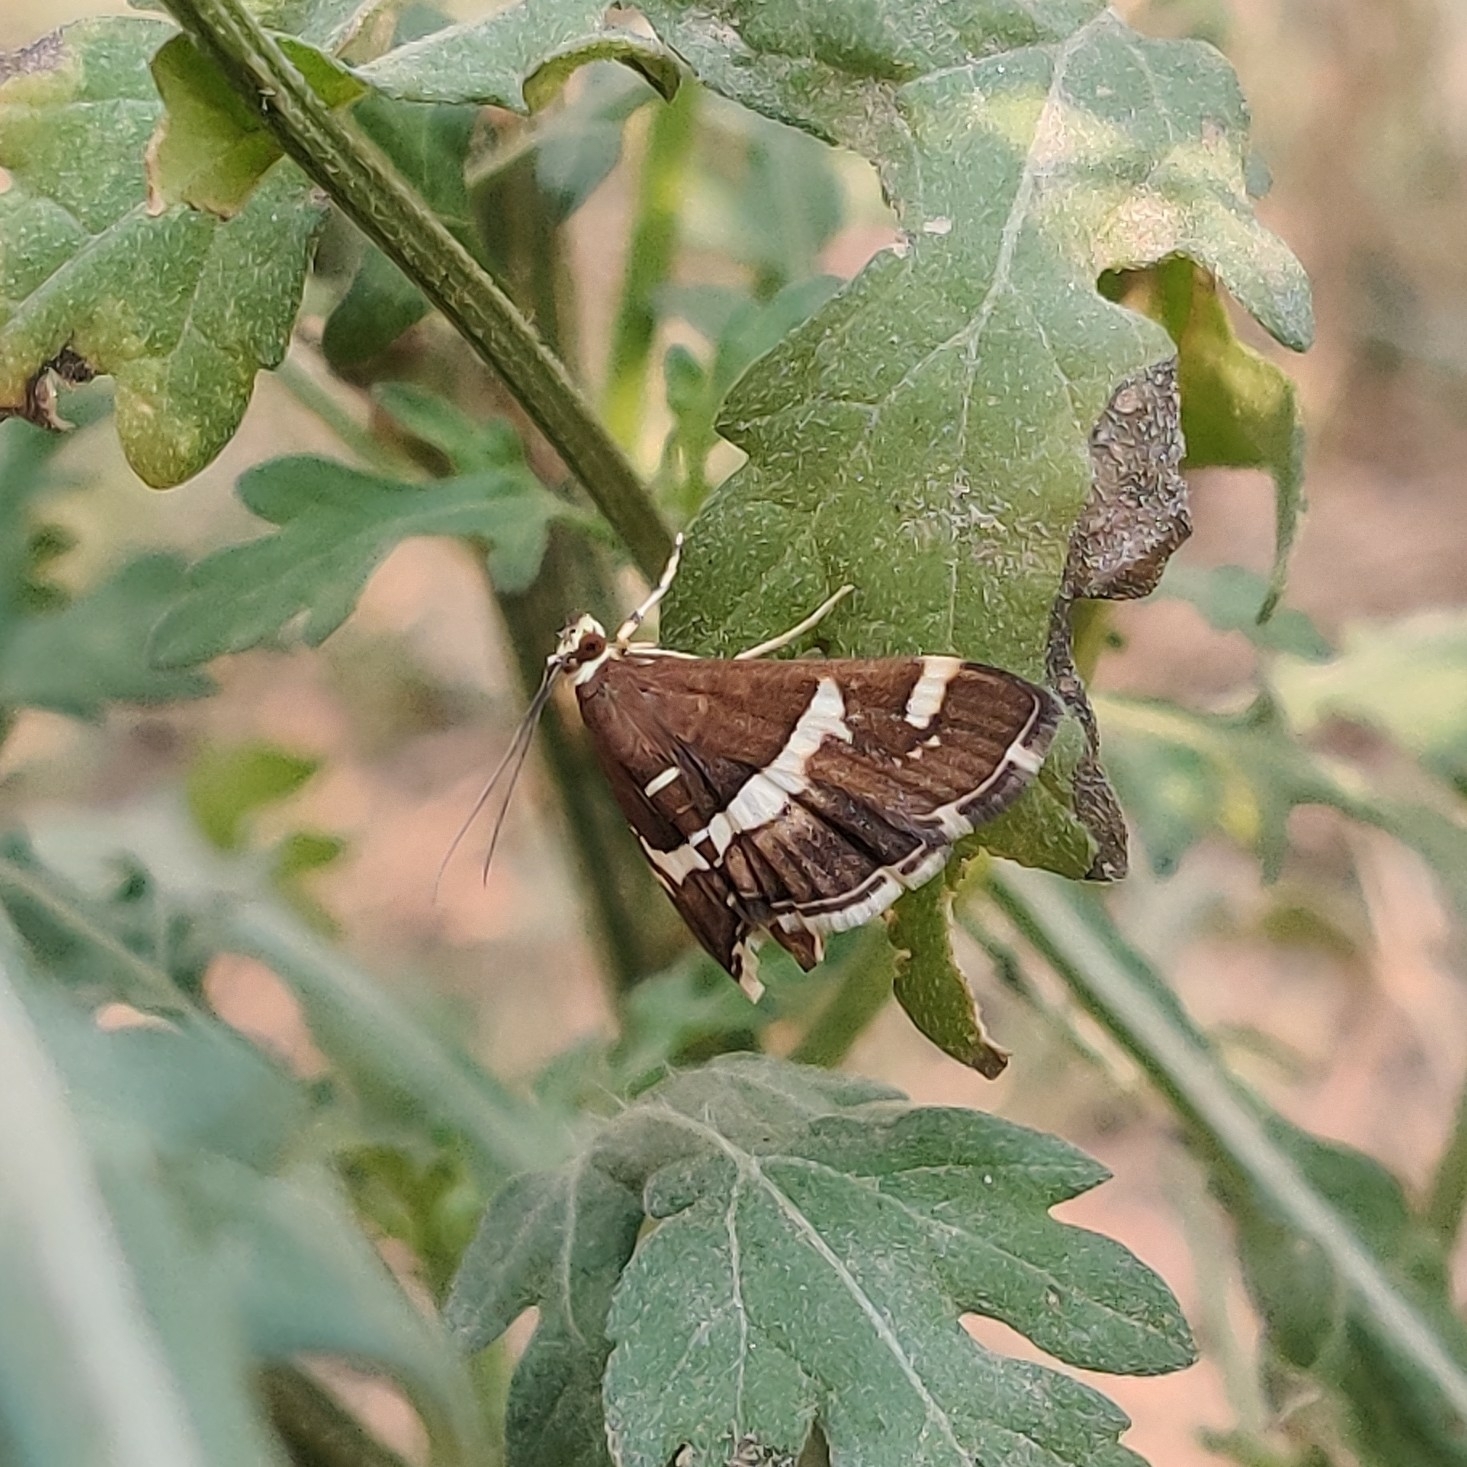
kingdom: Animalia
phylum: Arthropoda
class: Insecta
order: Lepidoptera
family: Crambidae
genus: Spoladea
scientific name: Spoladea recurvalis
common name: Beet webworm moth
